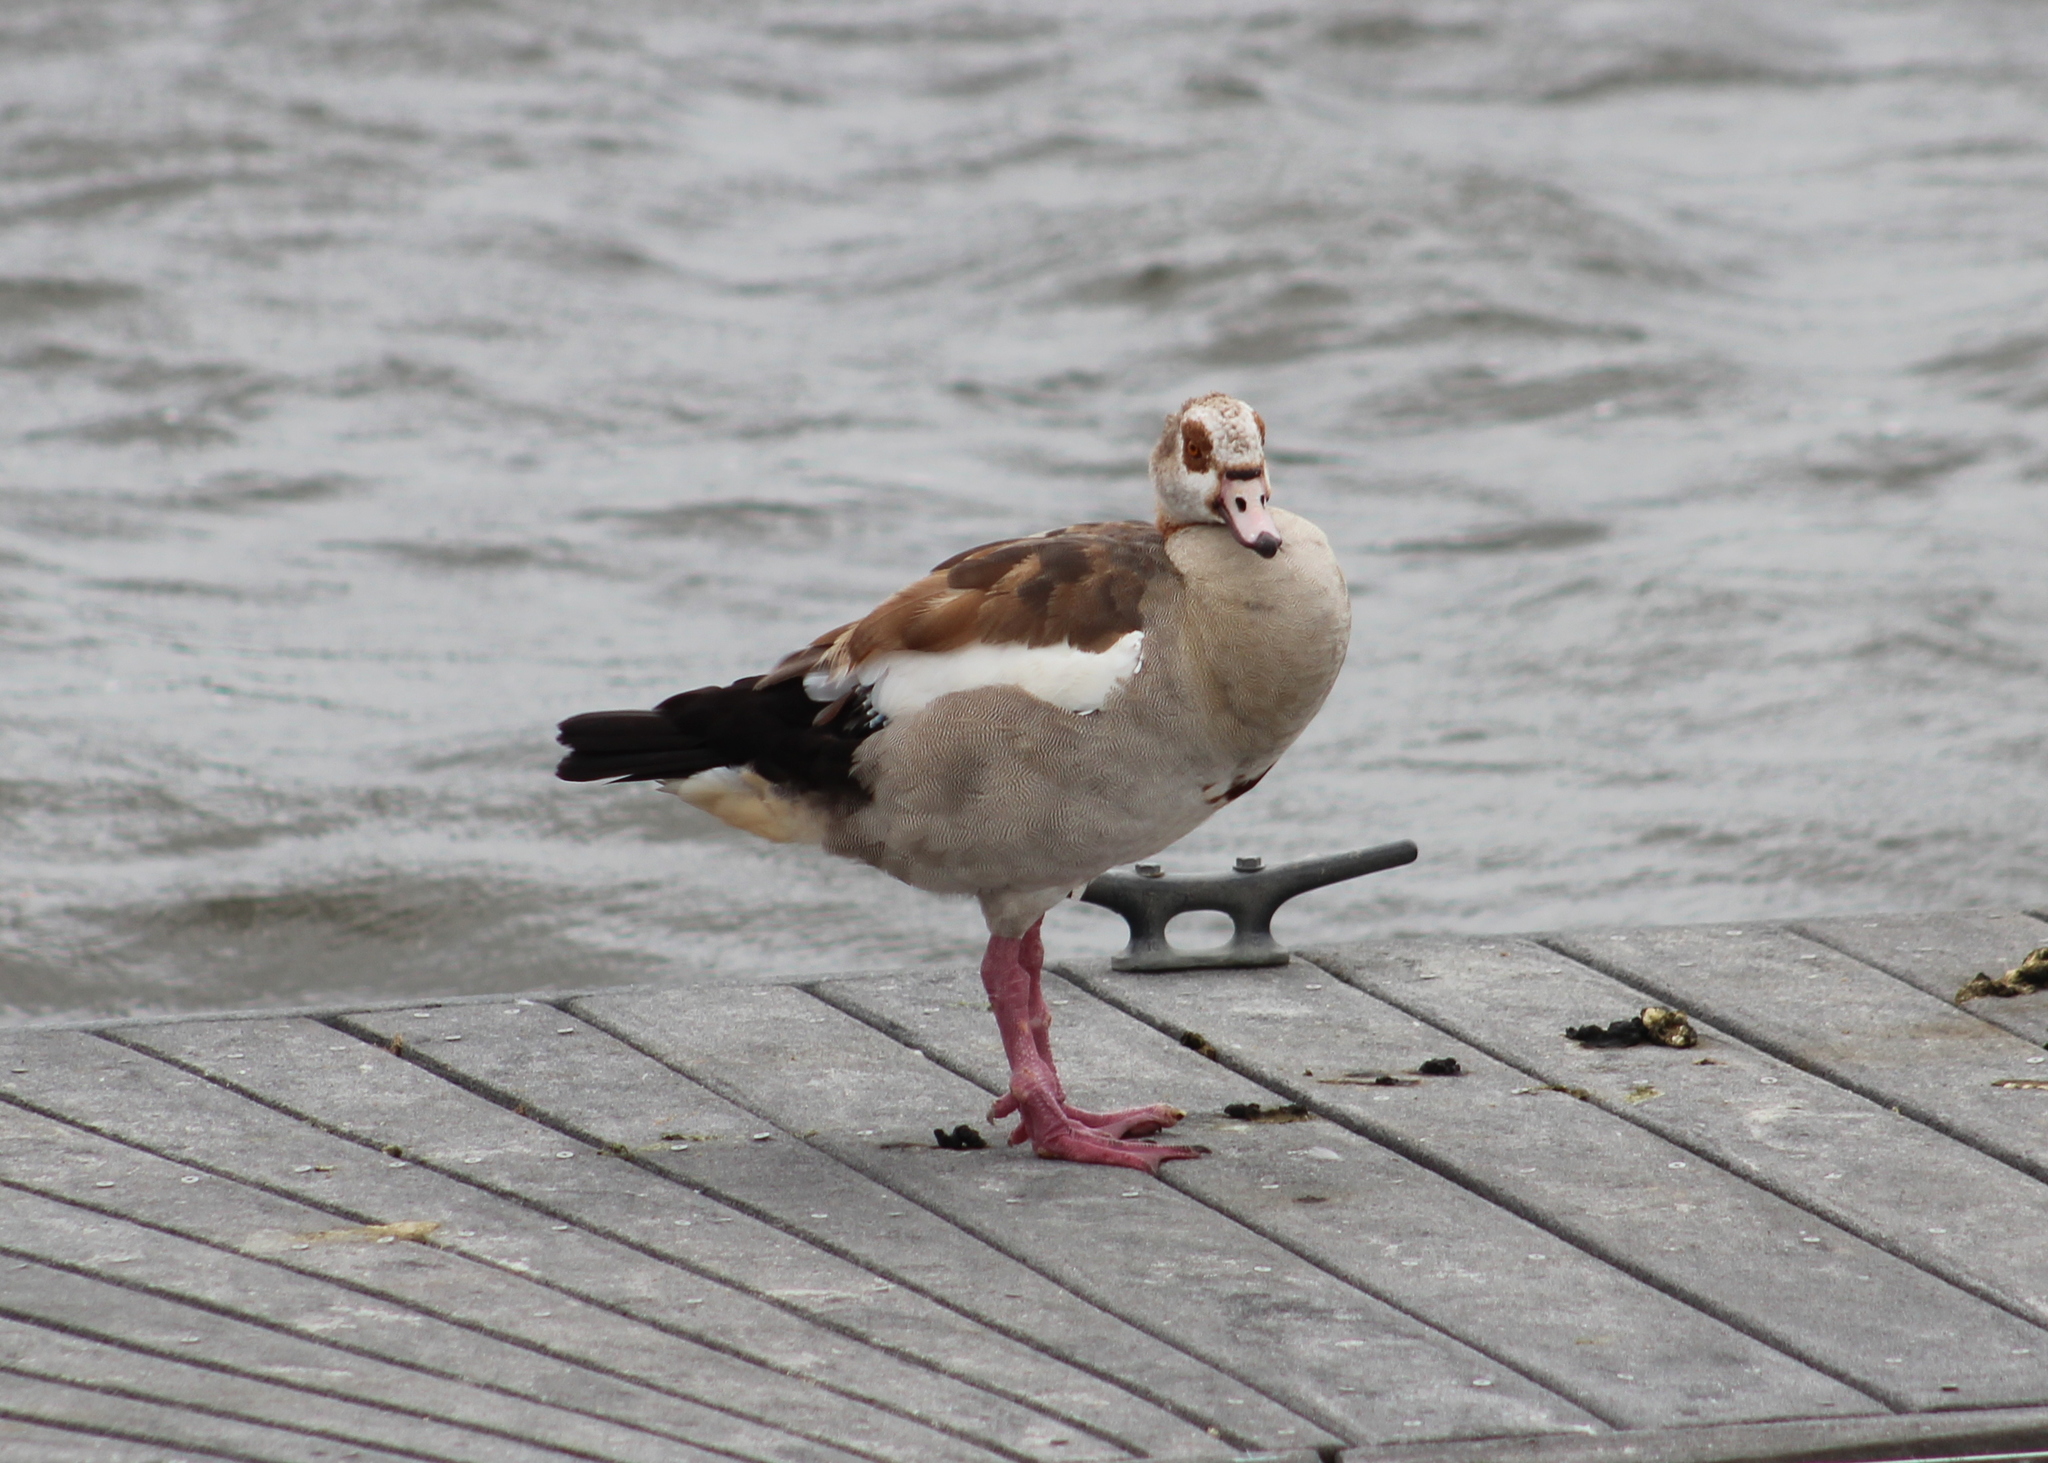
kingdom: Animalia
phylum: Chordata
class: Aves
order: Anseriformes
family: Anatidae
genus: Alopochen
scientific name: Alopochen aegyptiaca
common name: Egyptian goose
